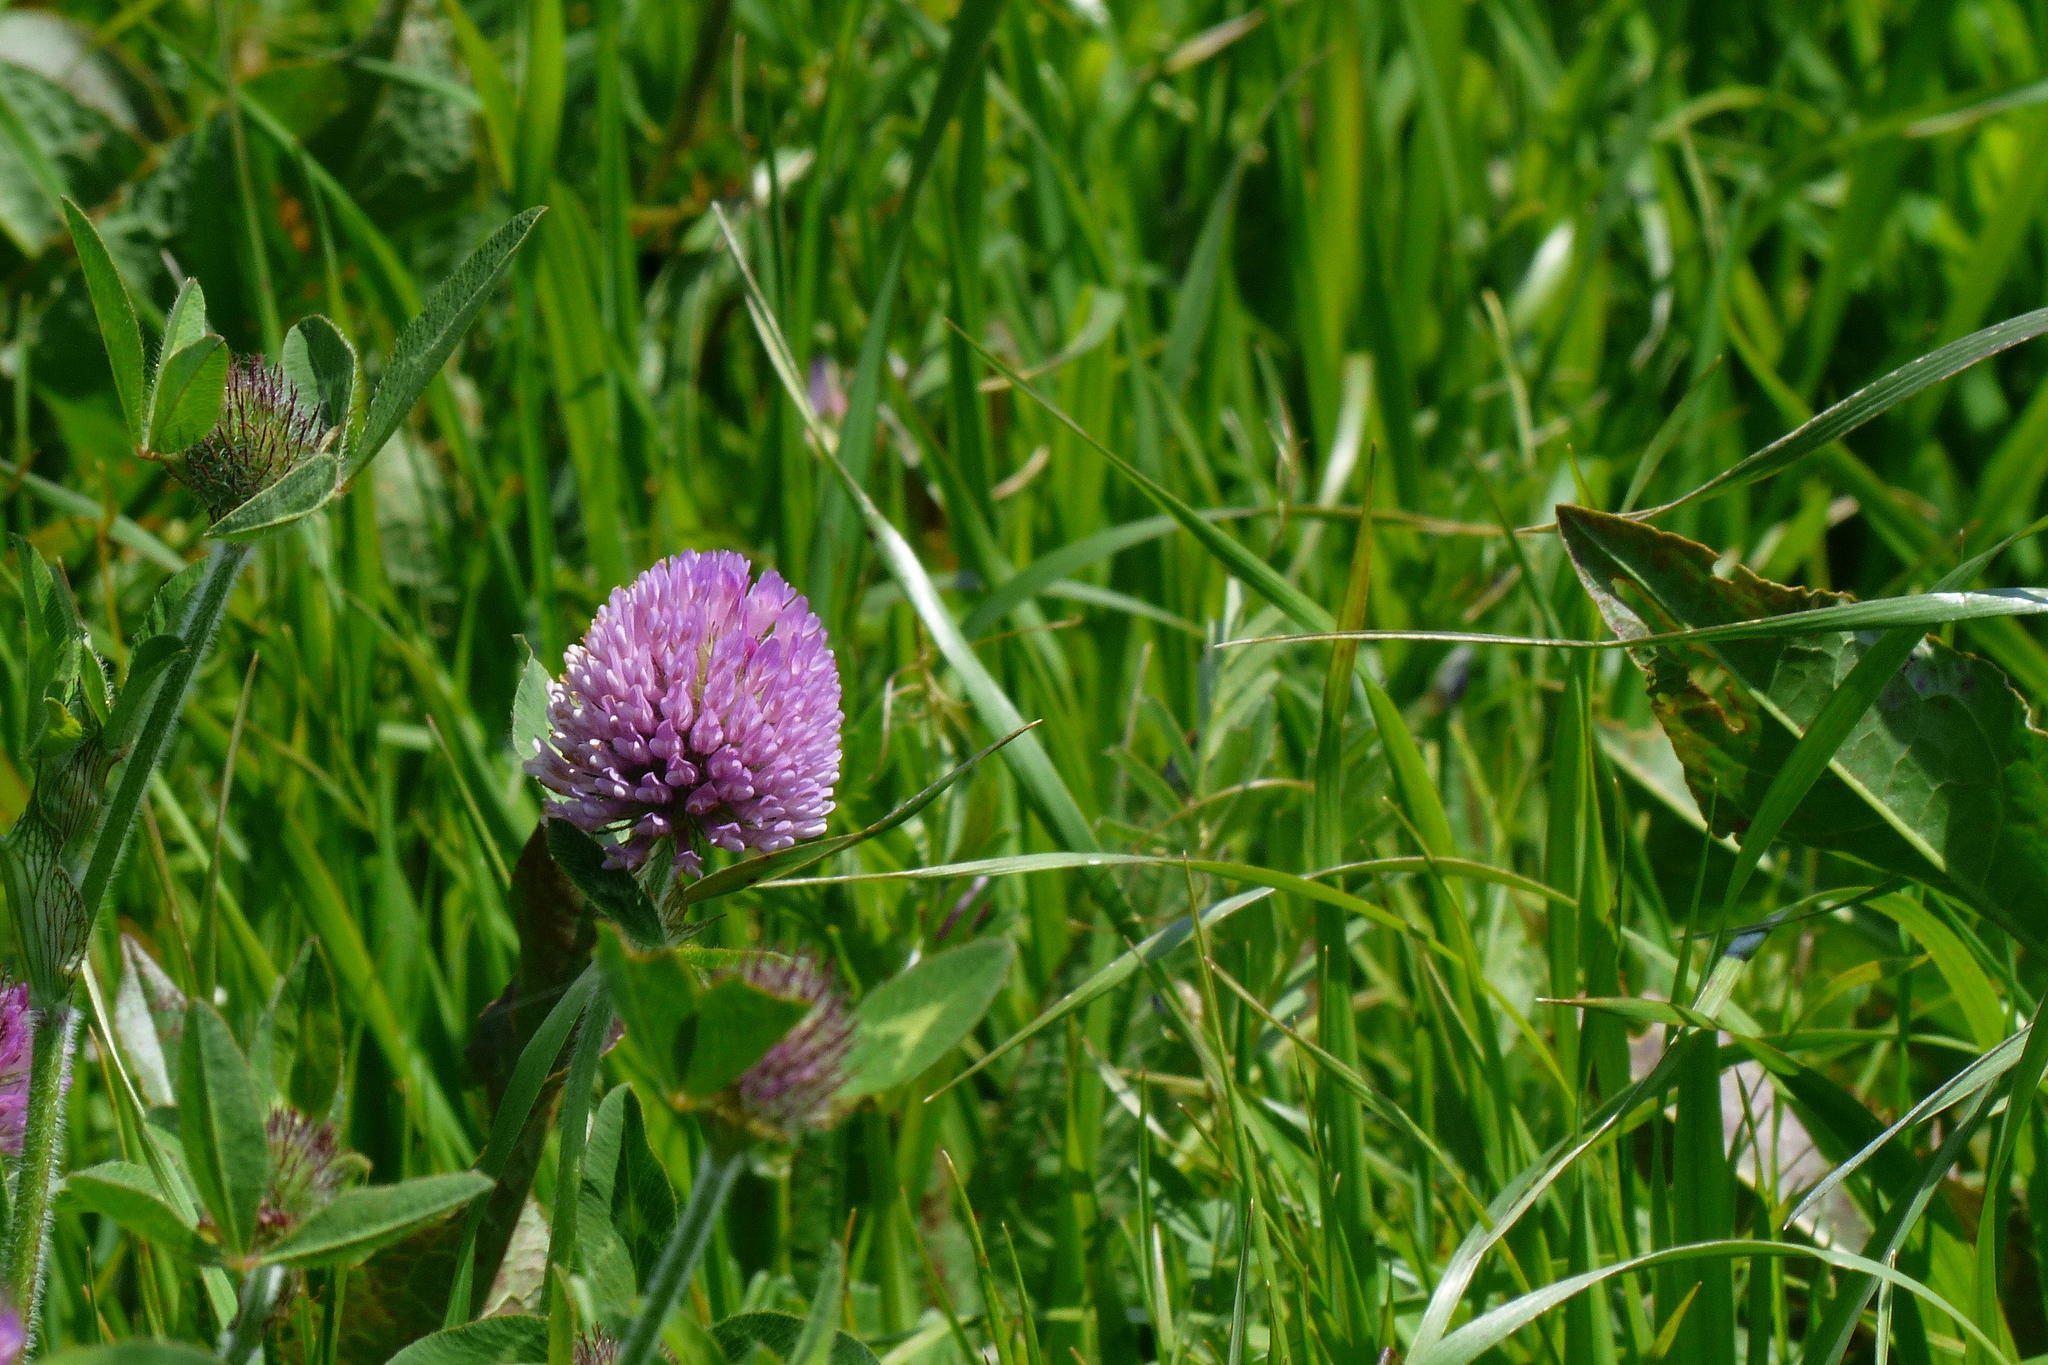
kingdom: Plantae
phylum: Tracheophyta
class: Magnoliopsida
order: Fabales
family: Fabaceae
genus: Trifolium
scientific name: Trifolium pratense
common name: Red clover
